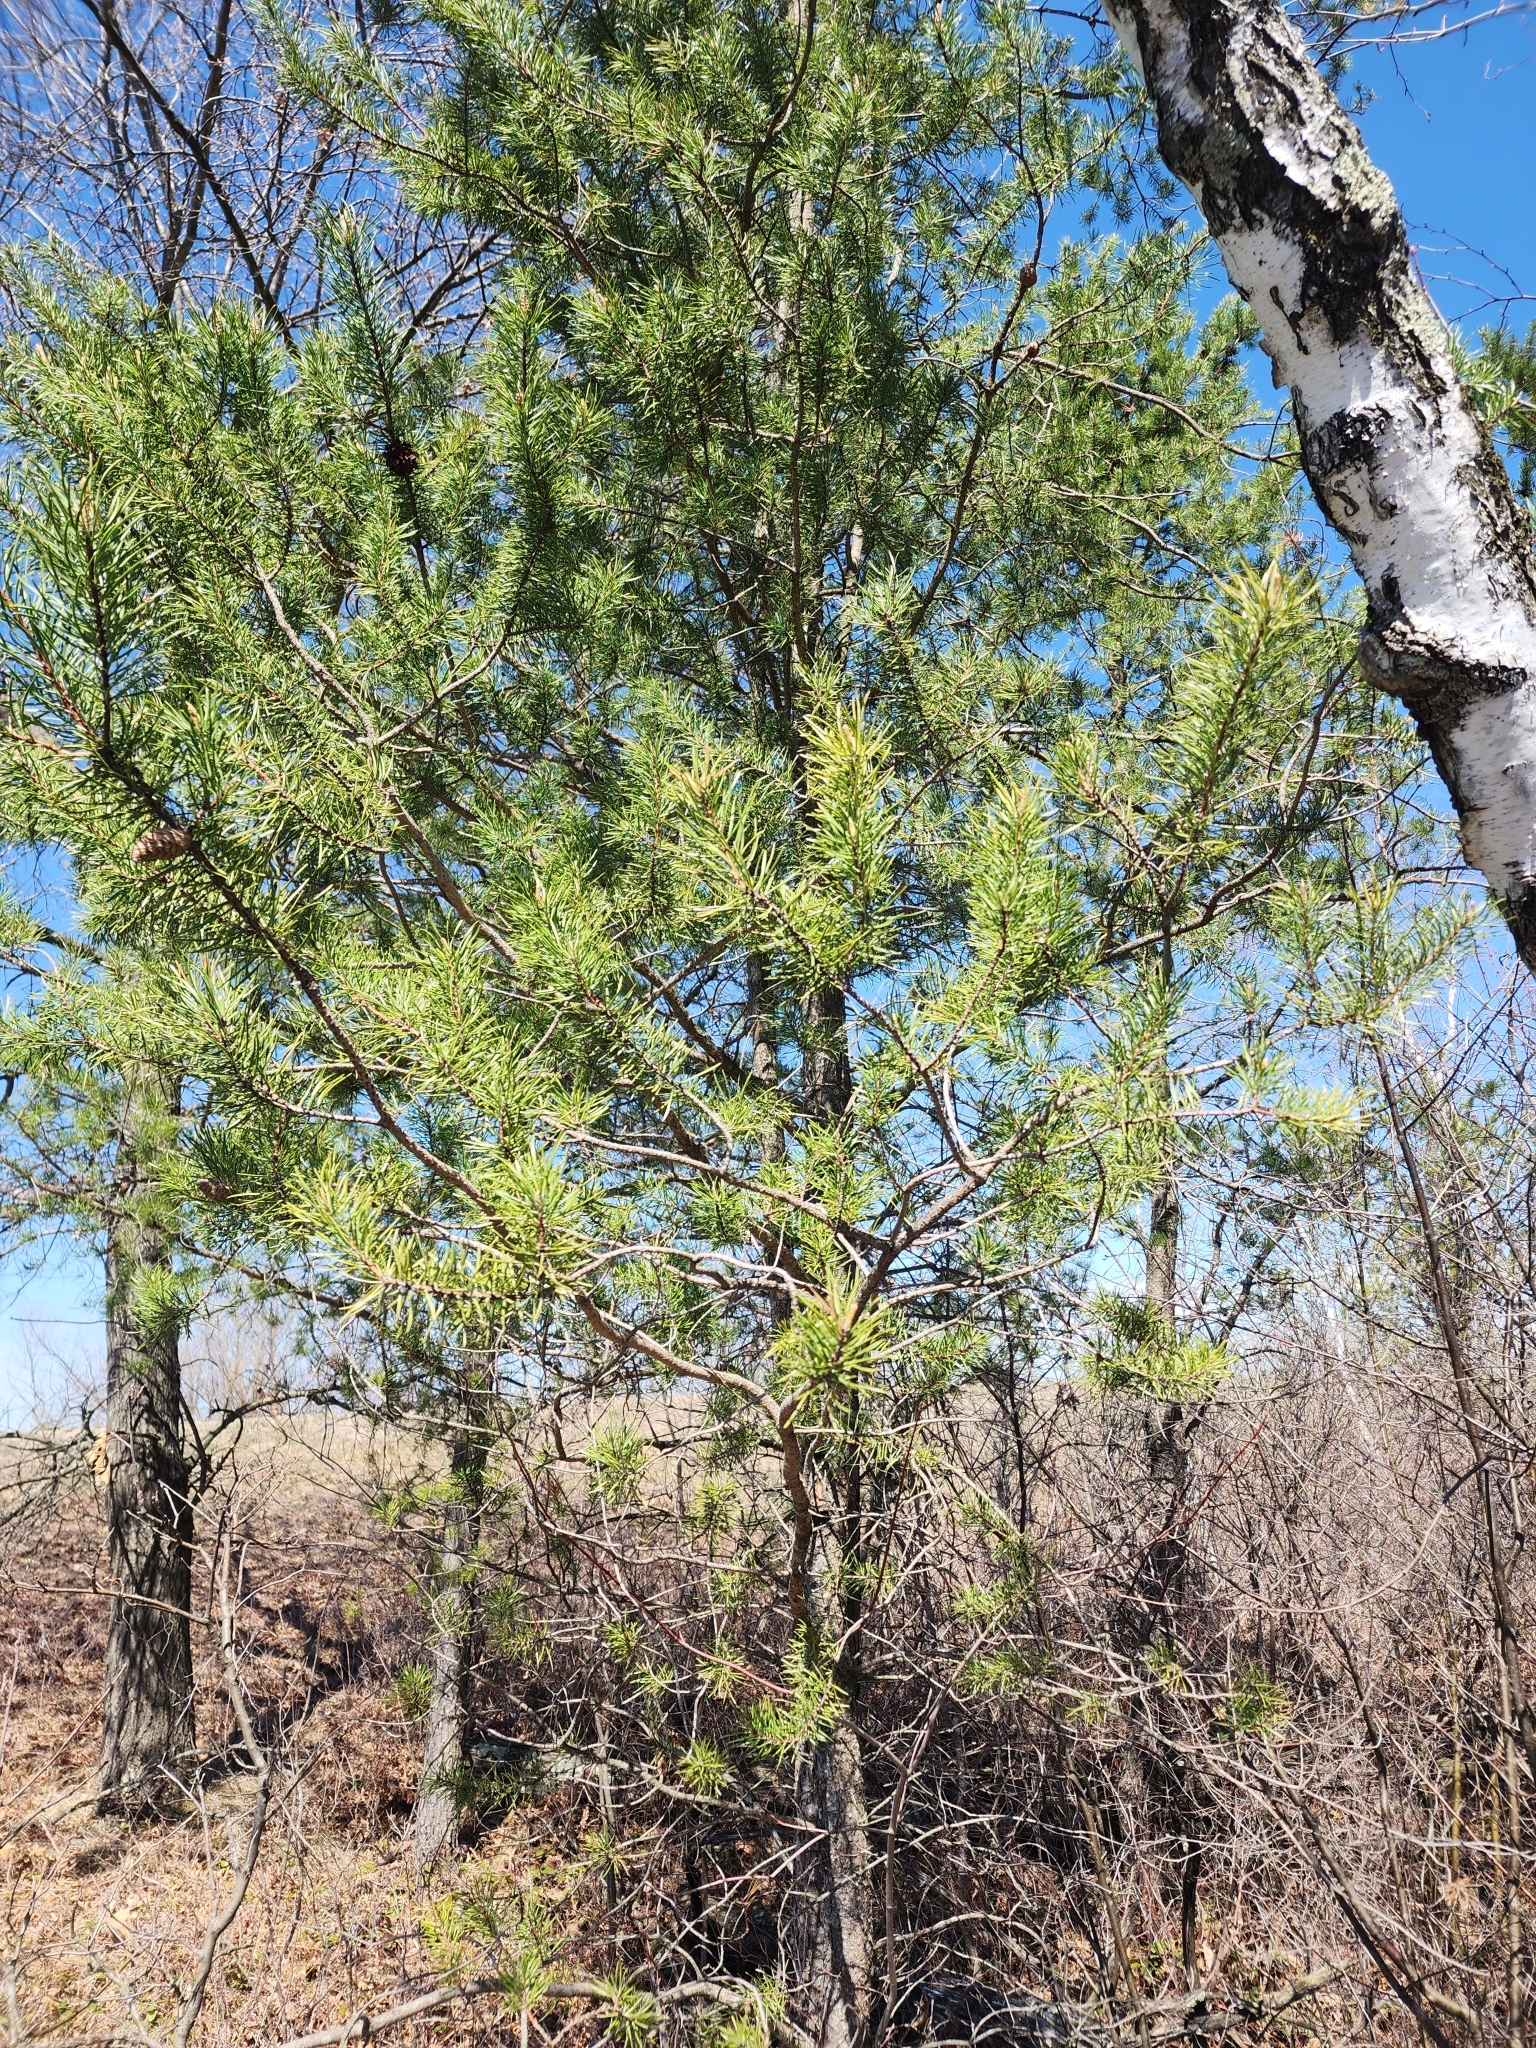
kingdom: Plantae
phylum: Tracheophyta
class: Pinopsida
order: Pinales
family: Pinaceae
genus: Pinus
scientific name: Pinus banksiana
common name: Jack pine
